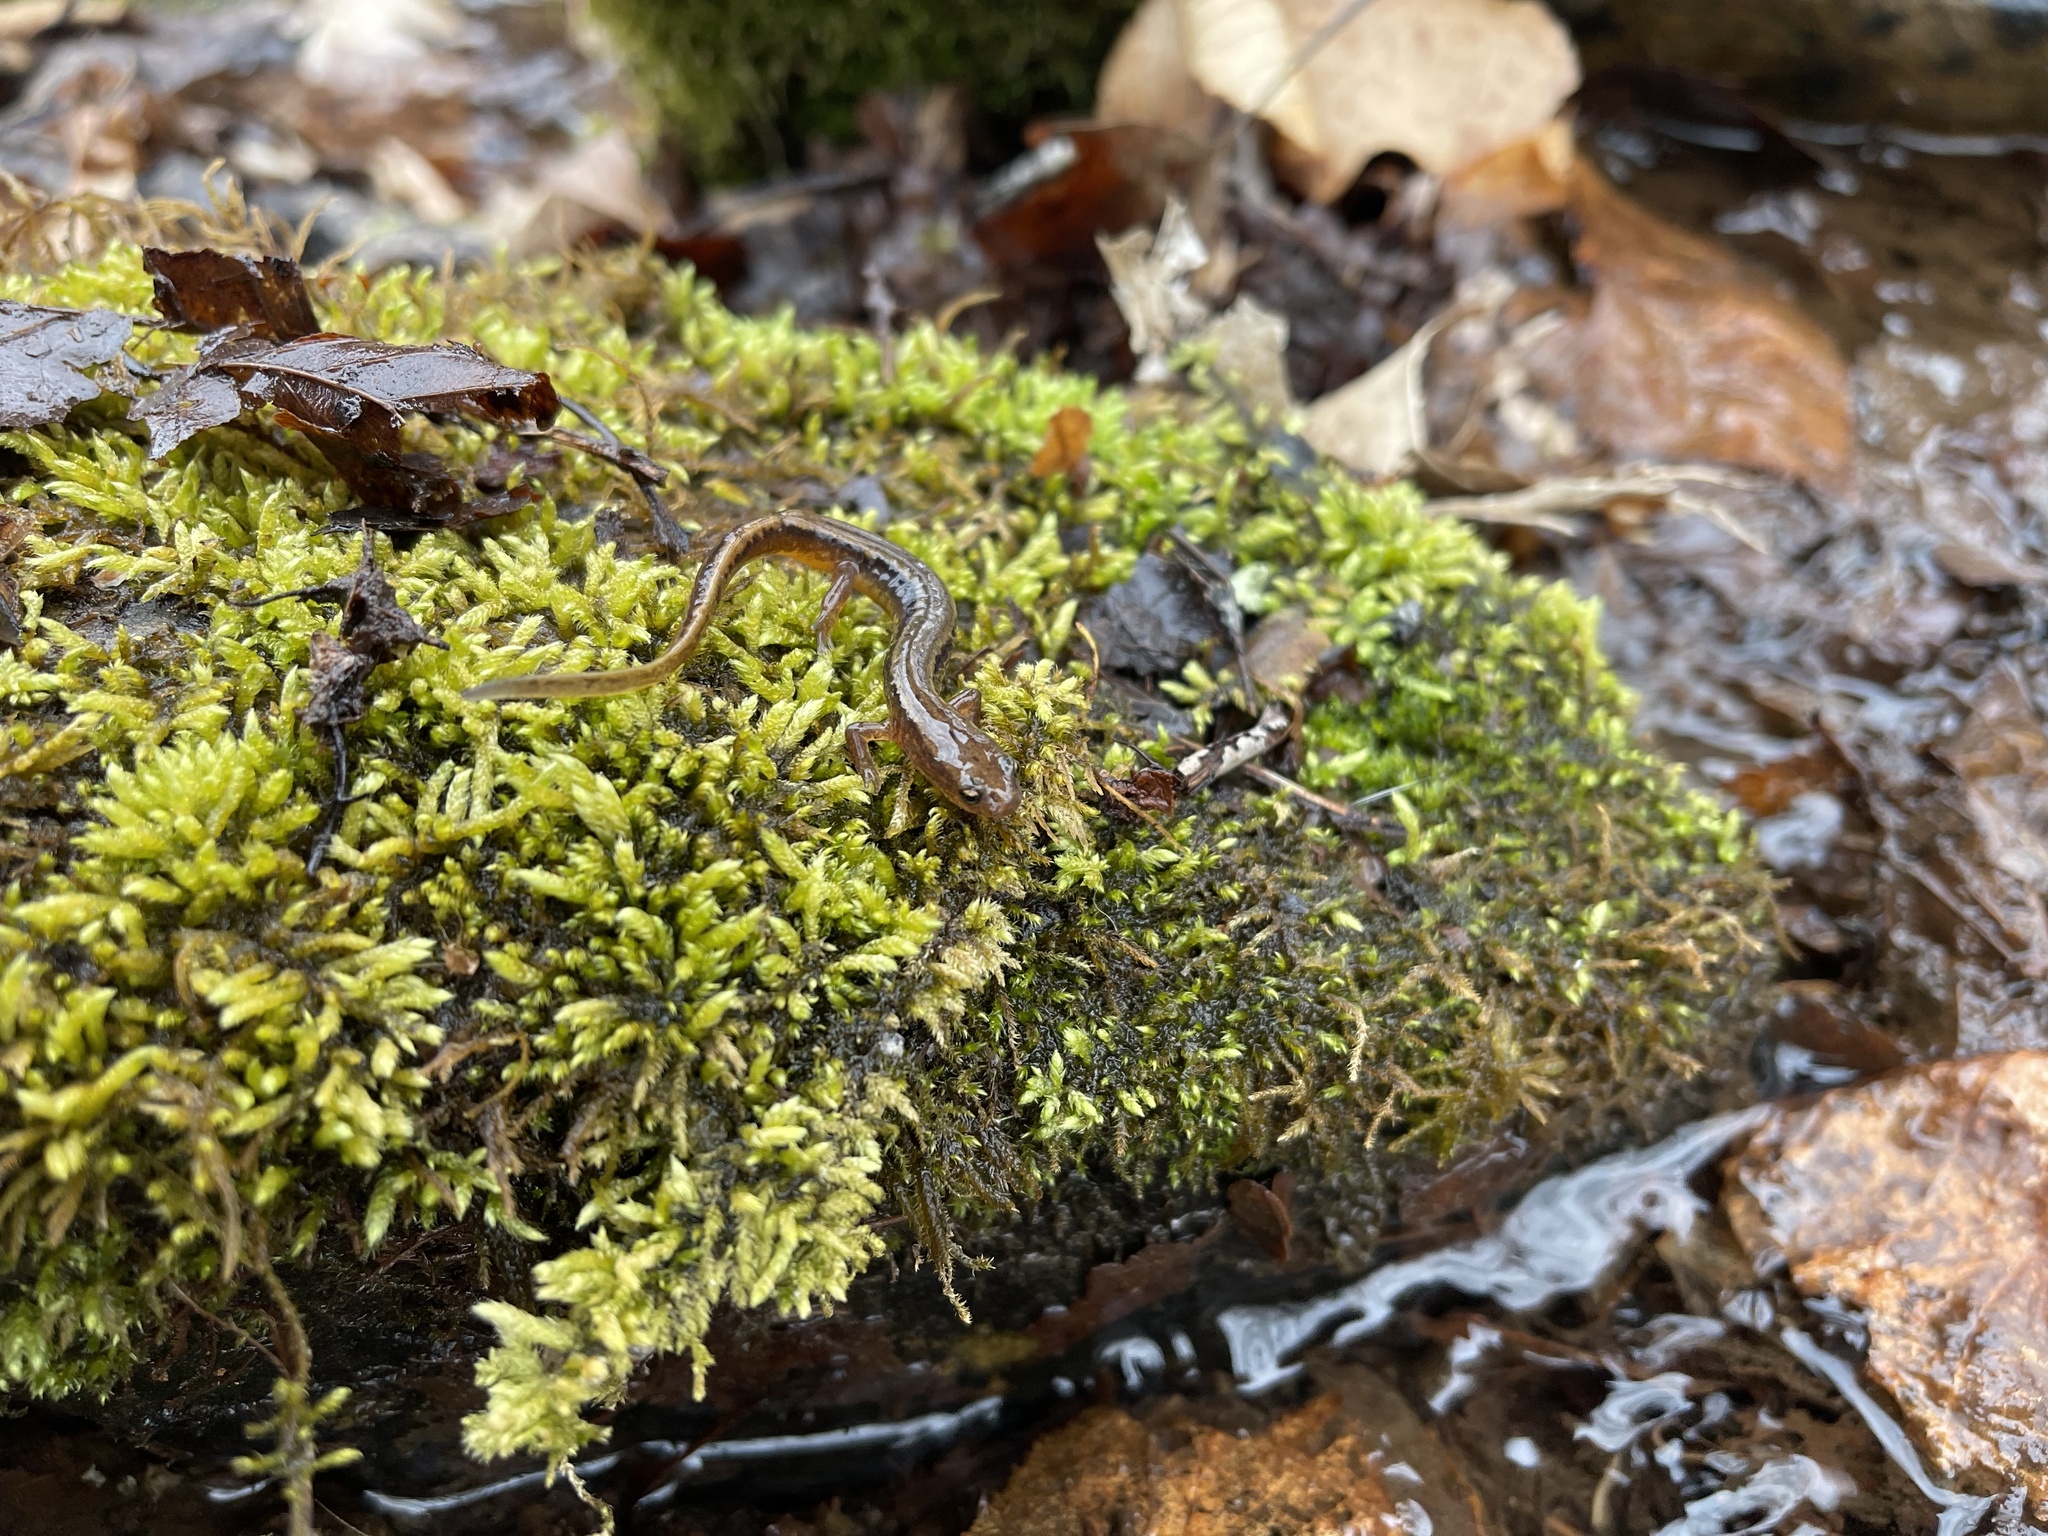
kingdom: Animalia
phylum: Chordata
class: Amphibia
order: Caudata
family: Plethodontidae
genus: Eurycea
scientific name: Eurycea bislineata
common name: Northern two-lined salamander
